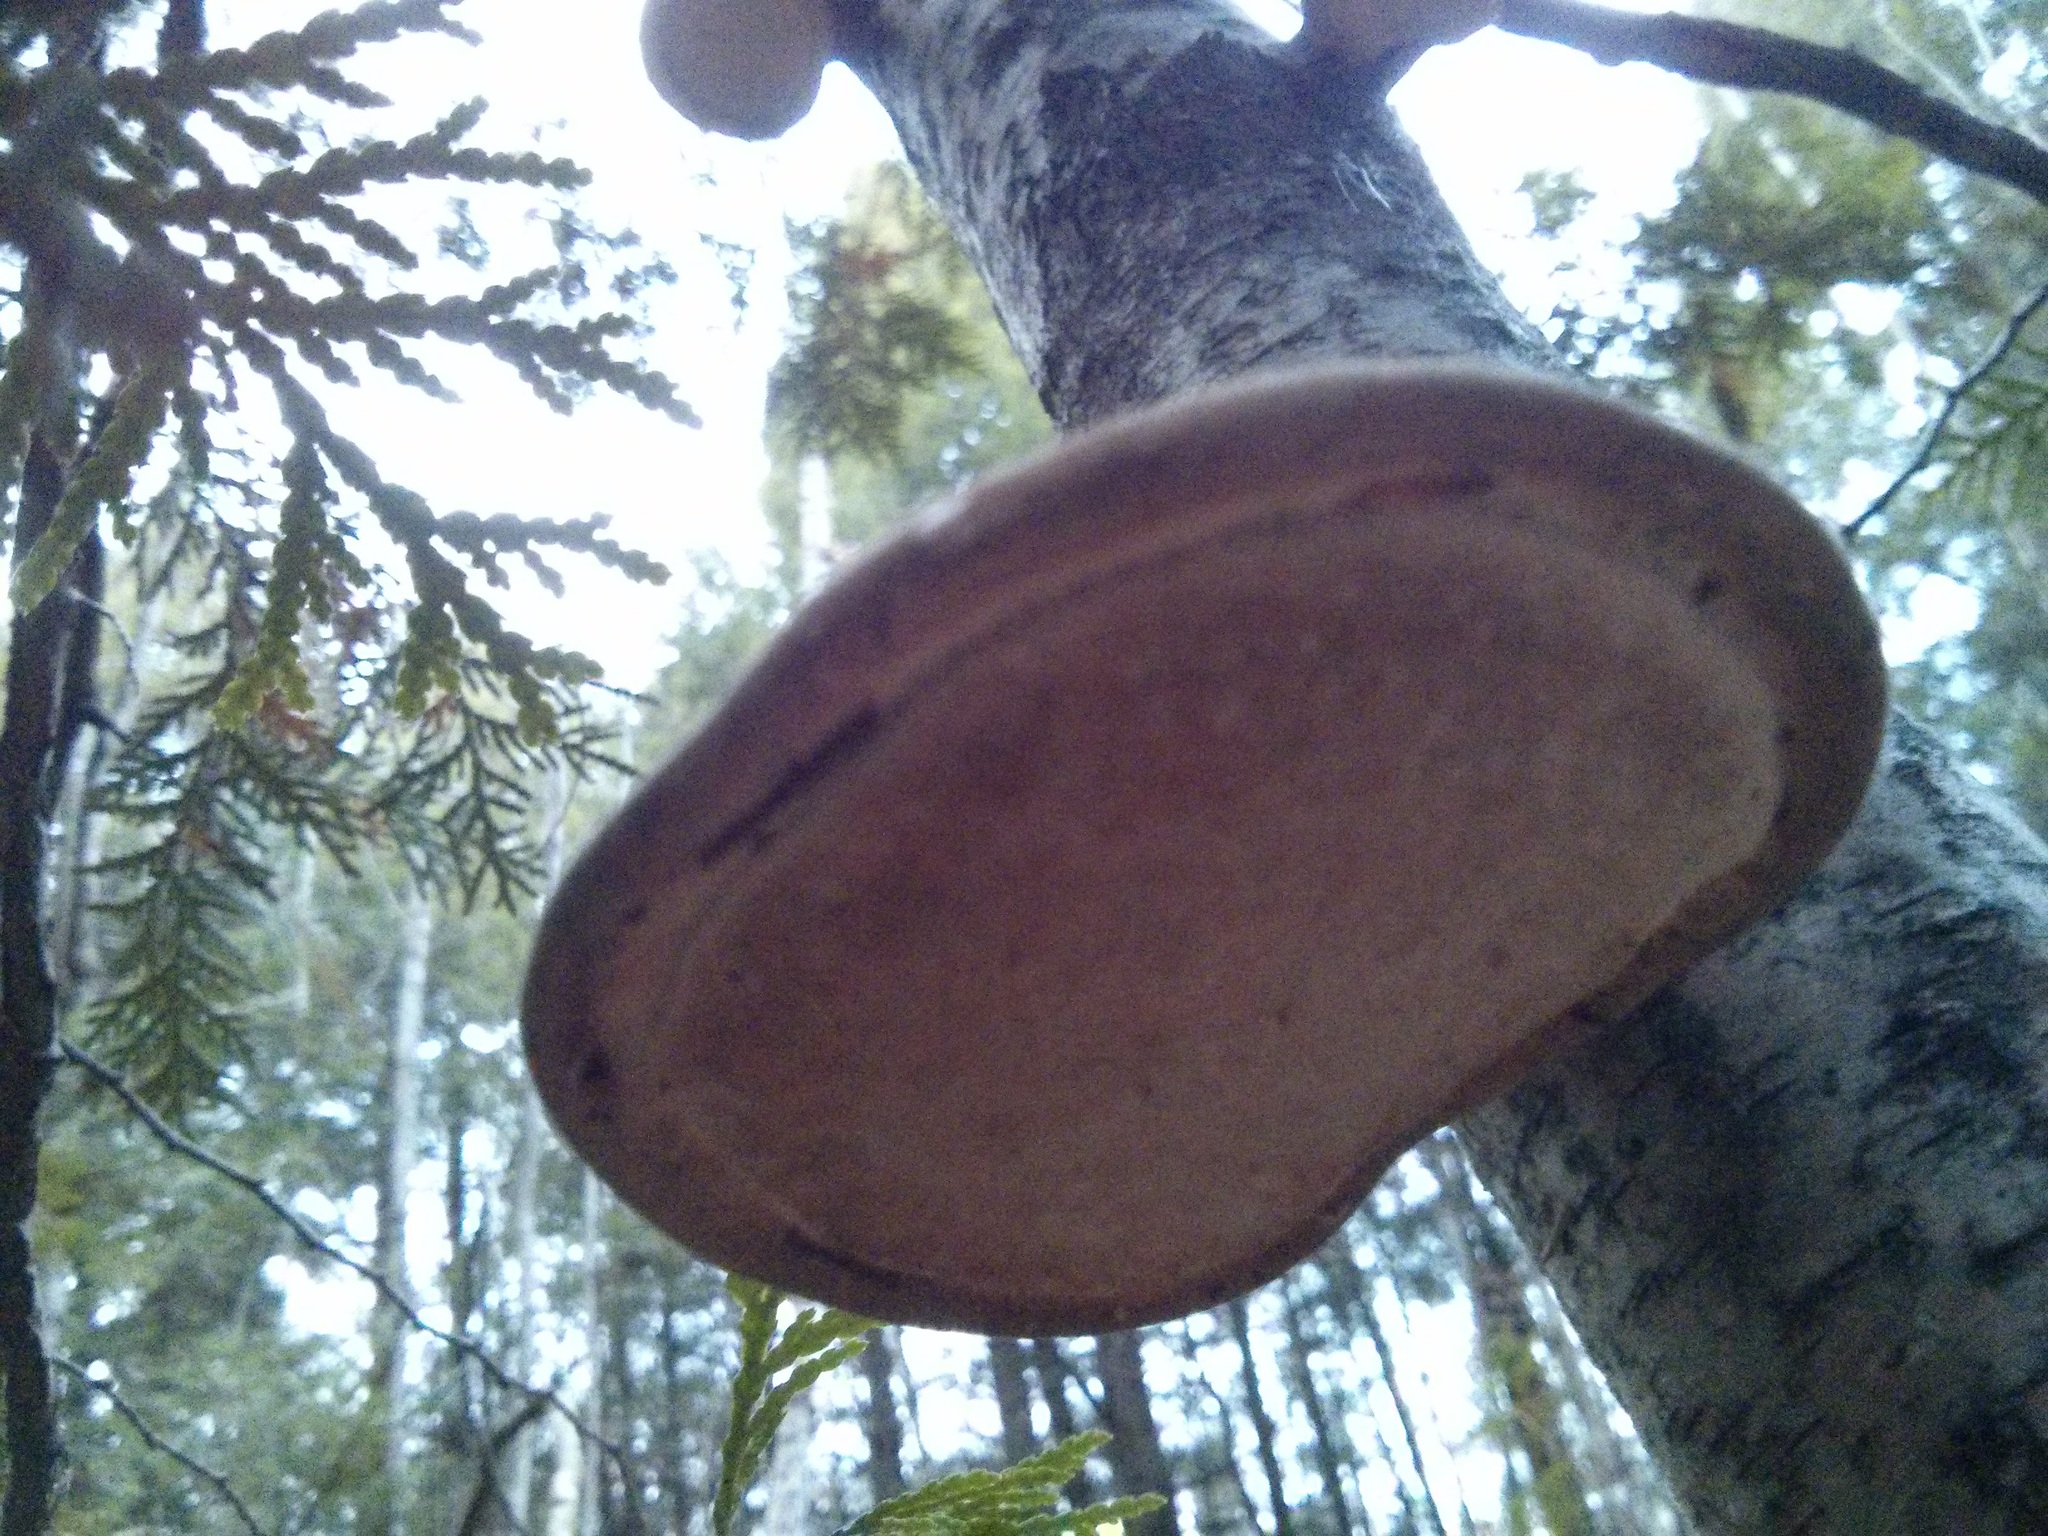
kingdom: Fungi
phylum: Basidiomycota
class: Agaricomycetes
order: Polyporales
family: Fomitopsidaceae
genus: Fomitopsis
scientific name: Fomitopsis betulina
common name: Birch polypore
